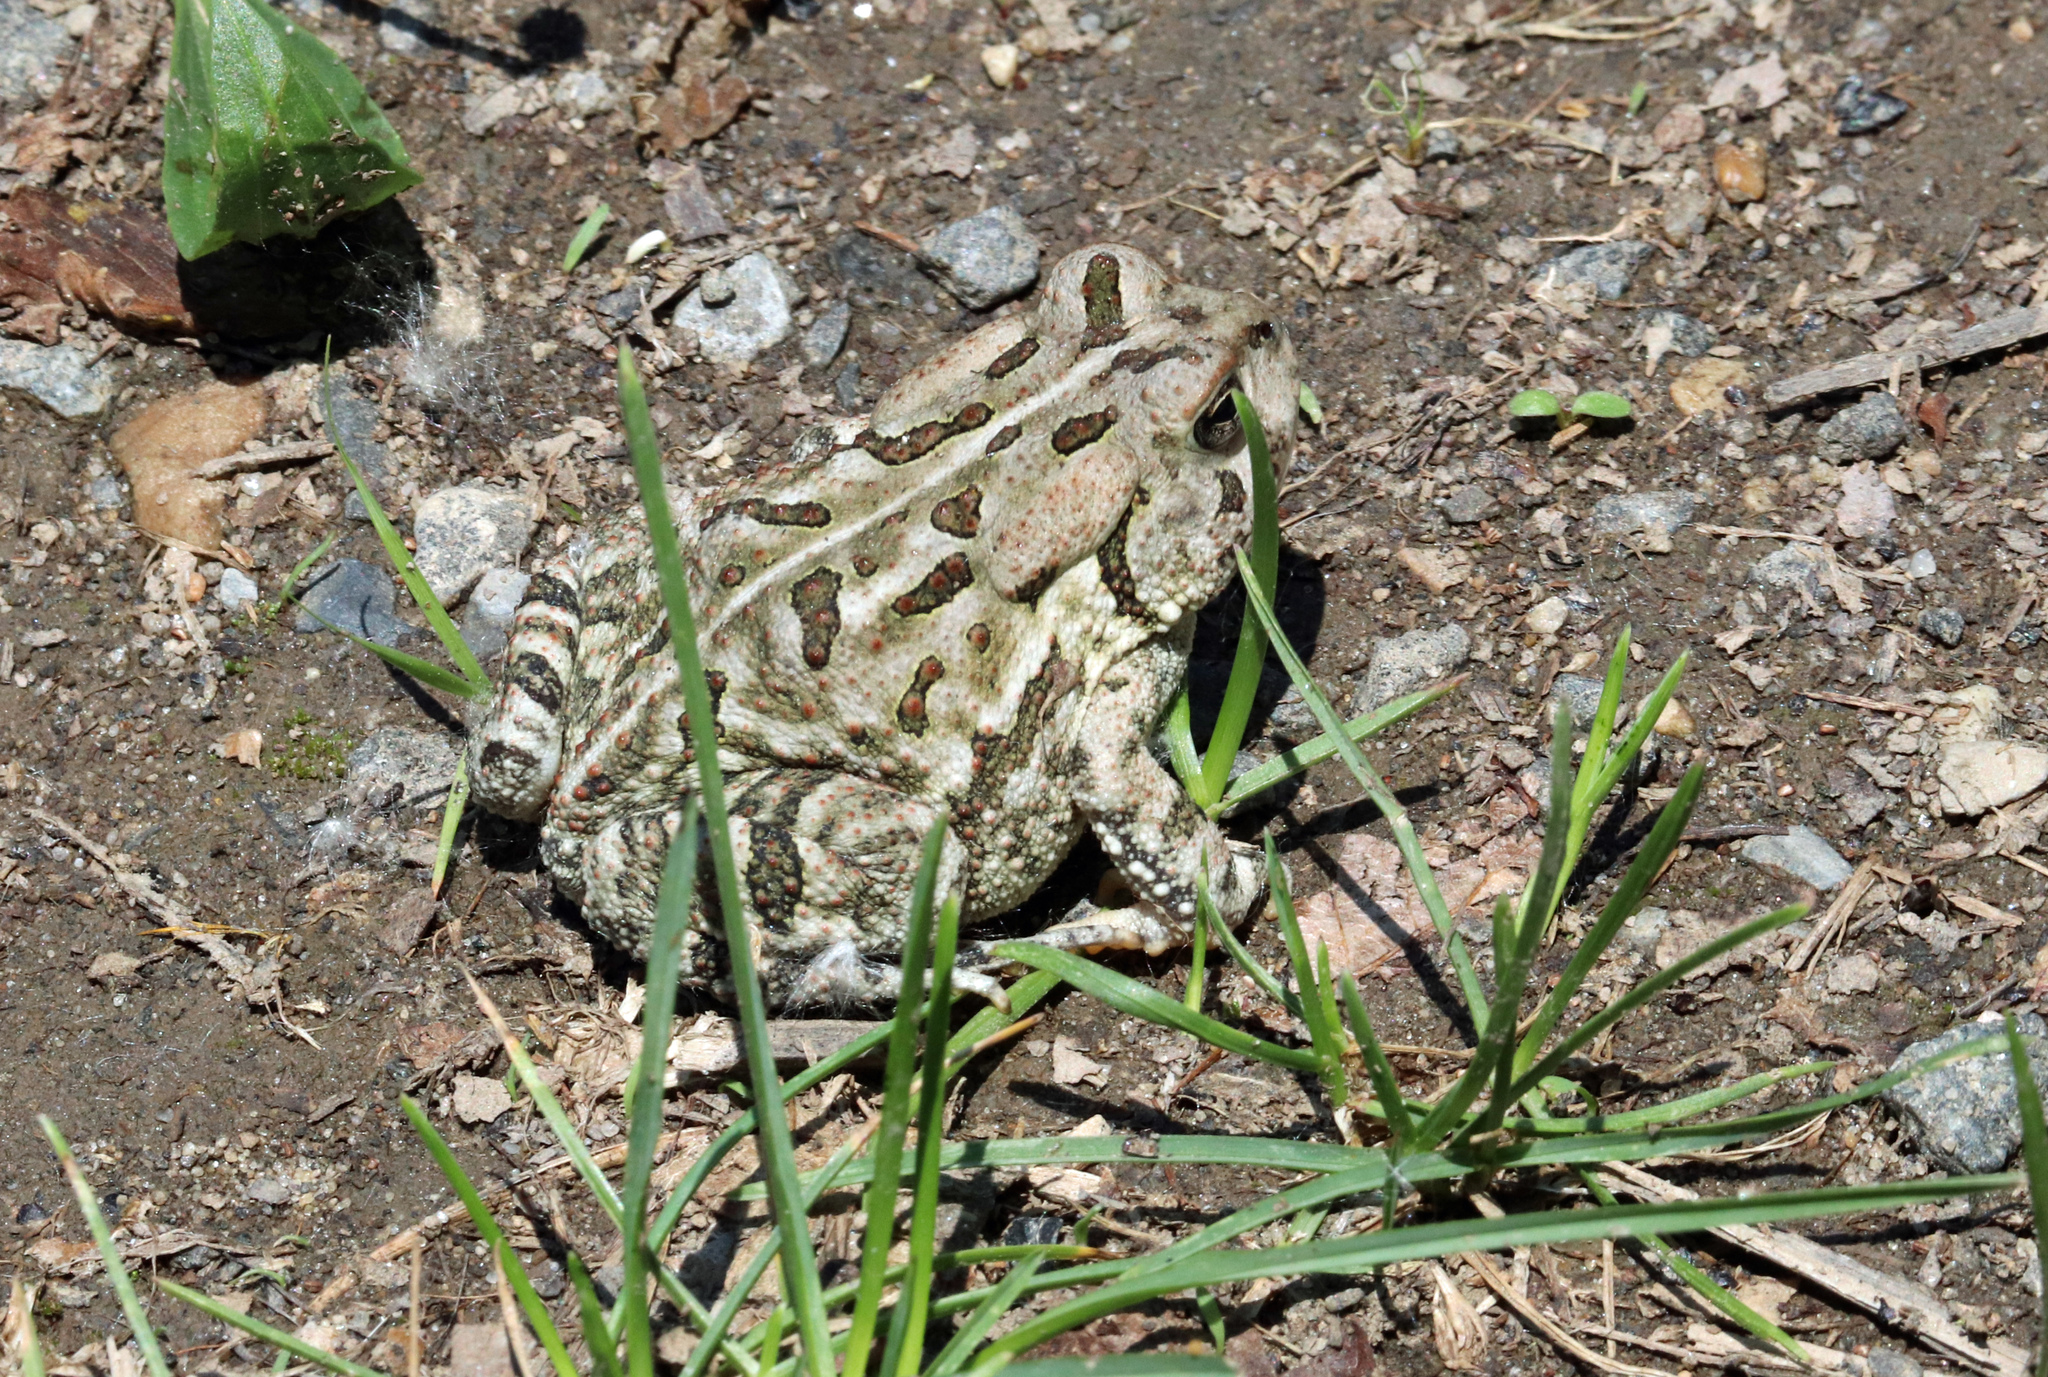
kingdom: Animalia
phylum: Chordata
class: Amphibia
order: Anura
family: Bufonidae
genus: Anaxyrus
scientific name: Anaxyrus fowleri
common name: Fowler's toad
